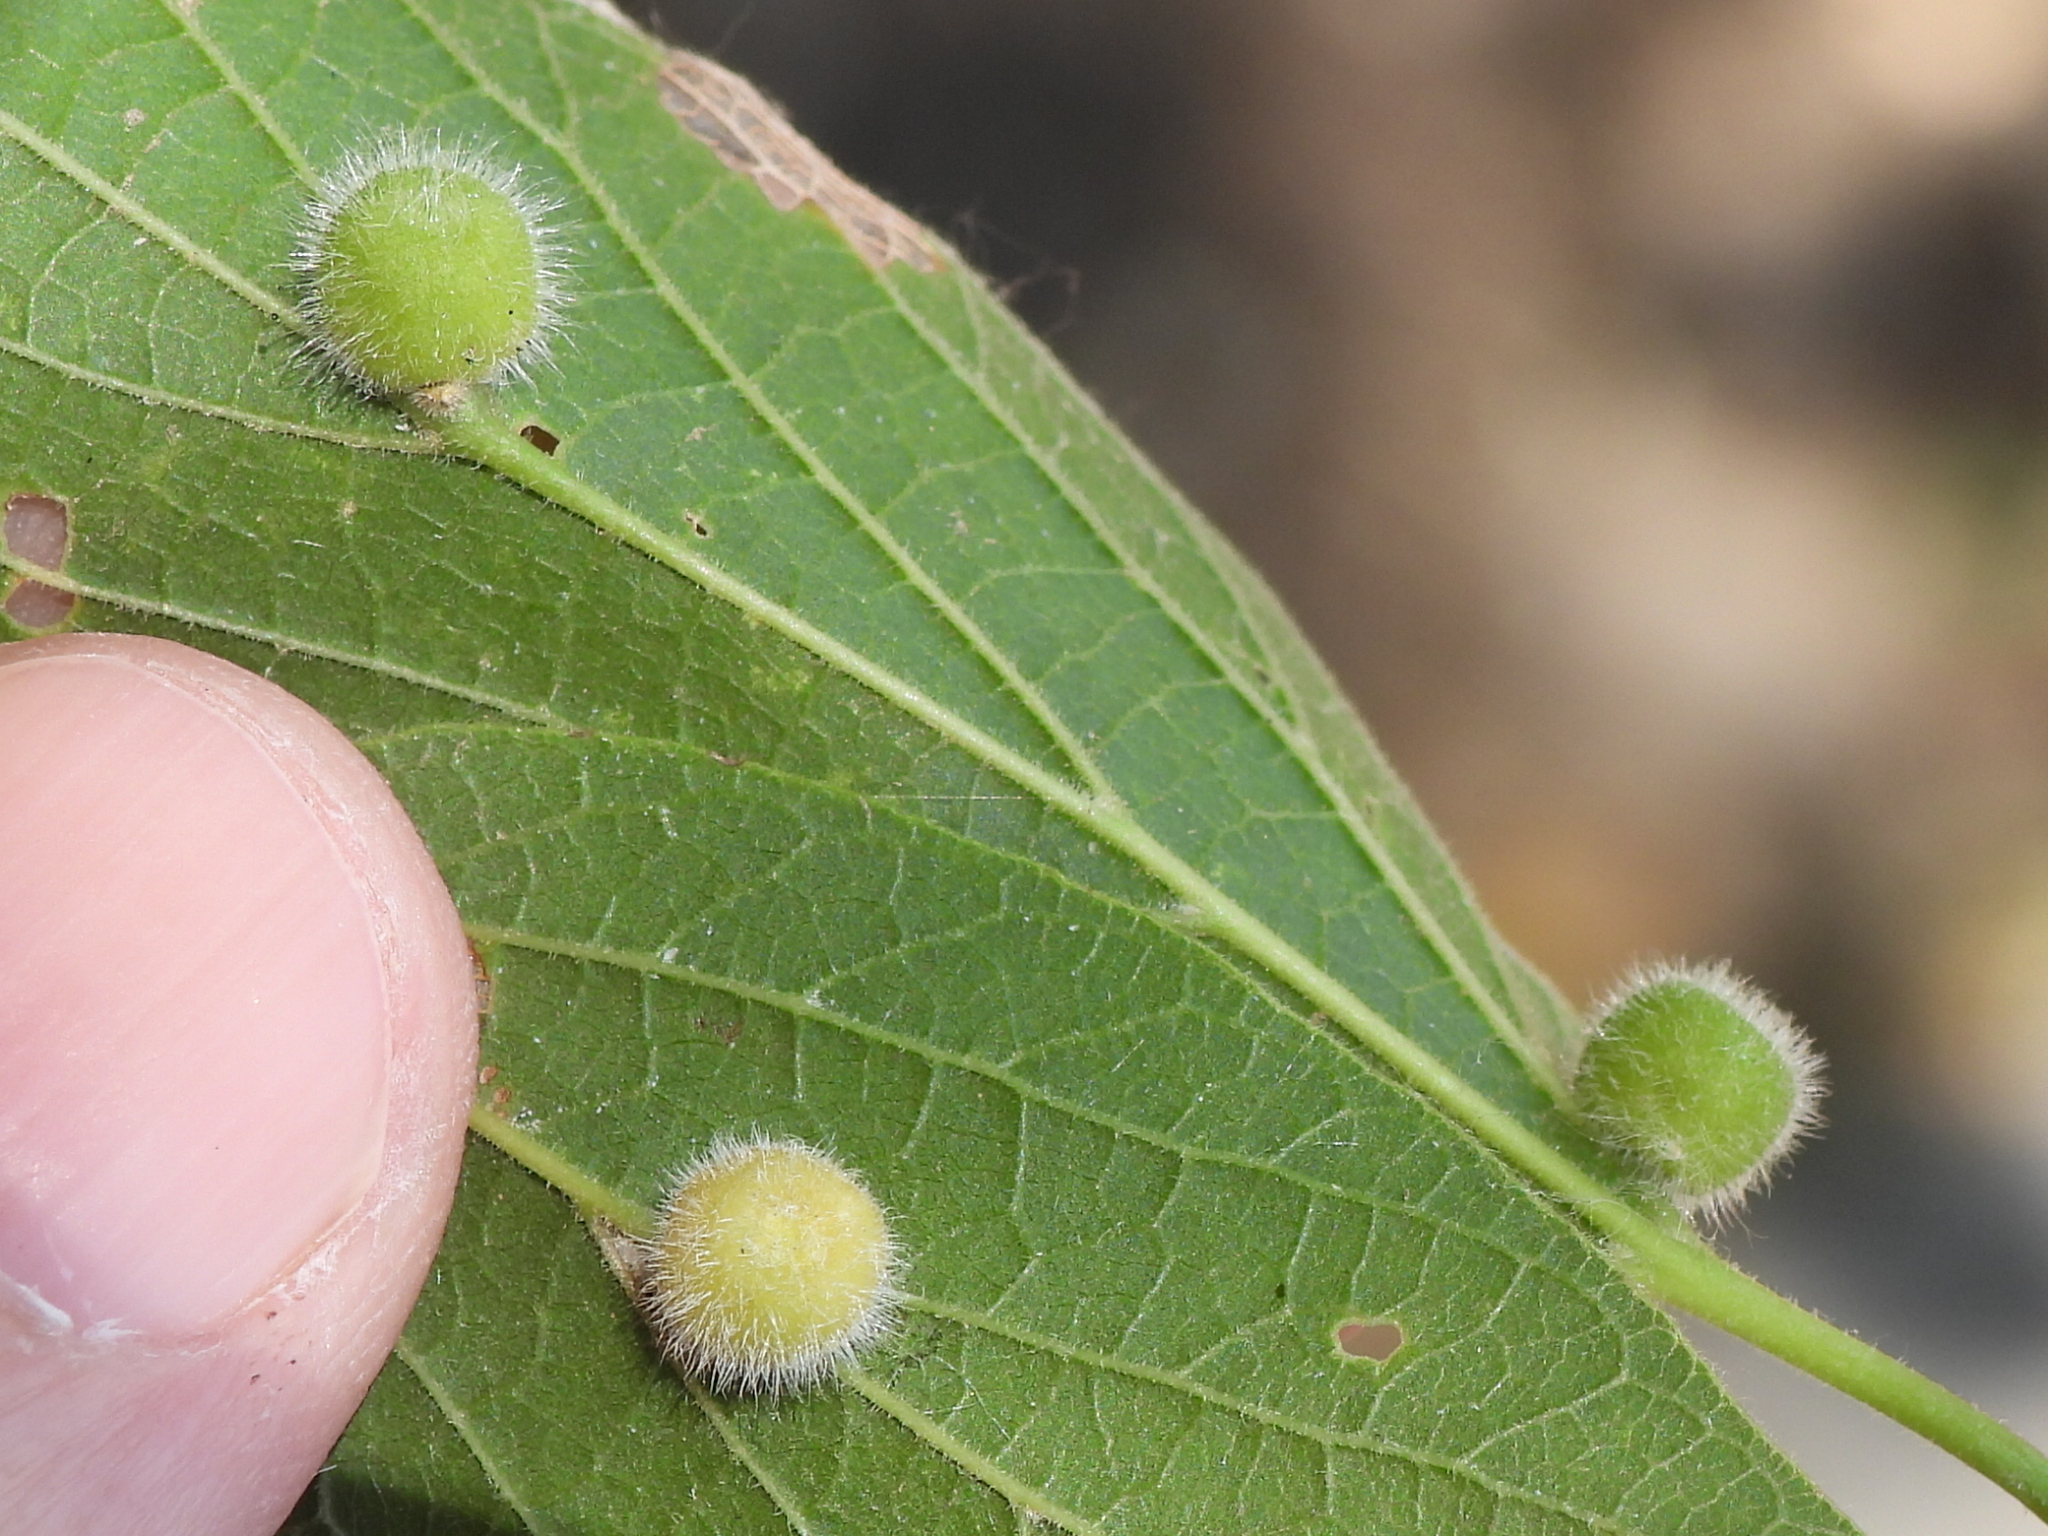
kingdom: Animalia
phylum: Arthropoda
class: Insecta
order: Diptera
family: Cecidomyiidae
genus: Celticecis
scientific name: Celticecis pubescens
